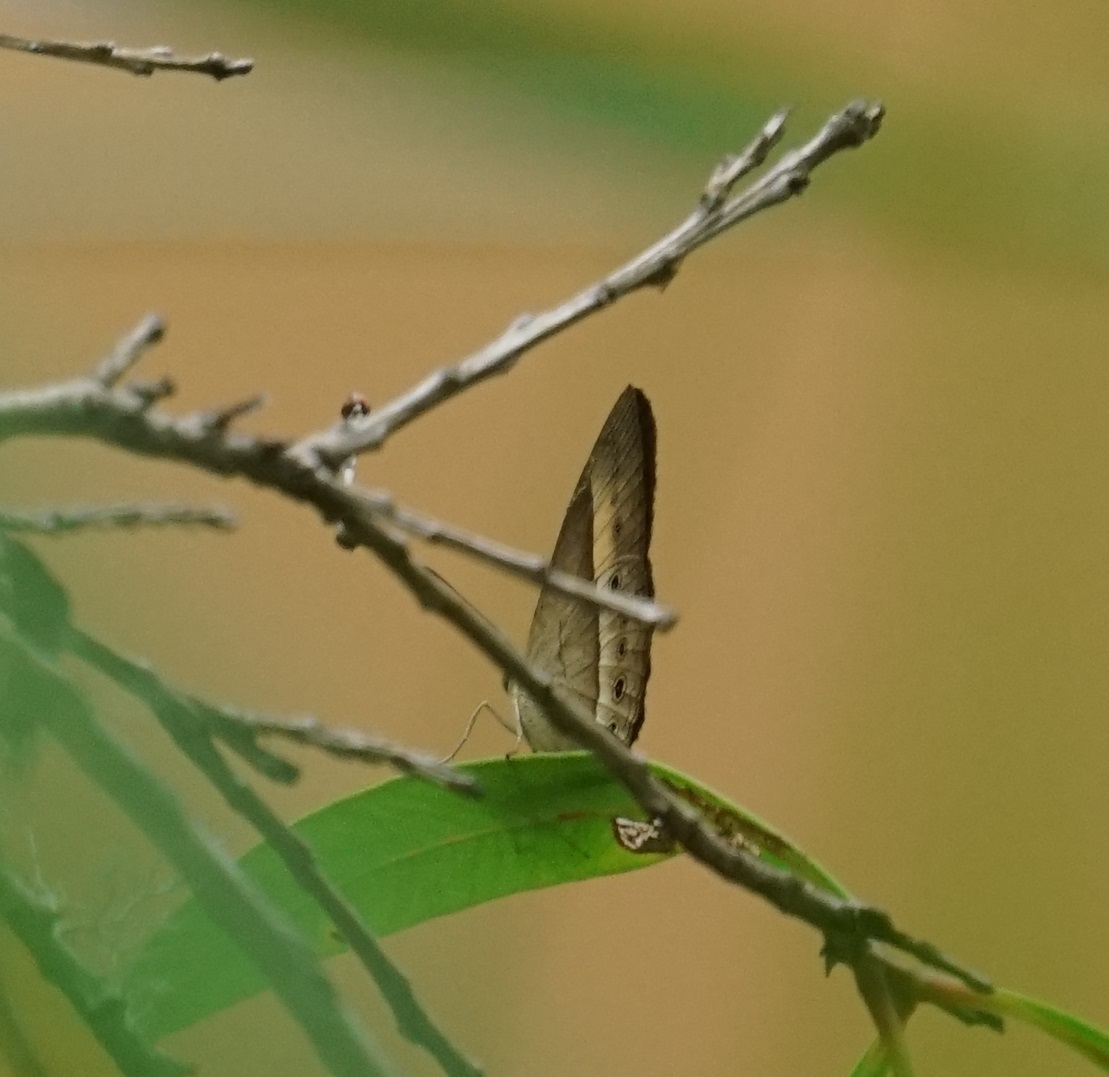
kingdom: Animalia
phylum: Arthropoda
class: Insecta
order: Lepidoptera
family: Nymphalidae
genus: Mycalesis
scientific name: Mycalesis terminus
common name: Orange bushbrown
